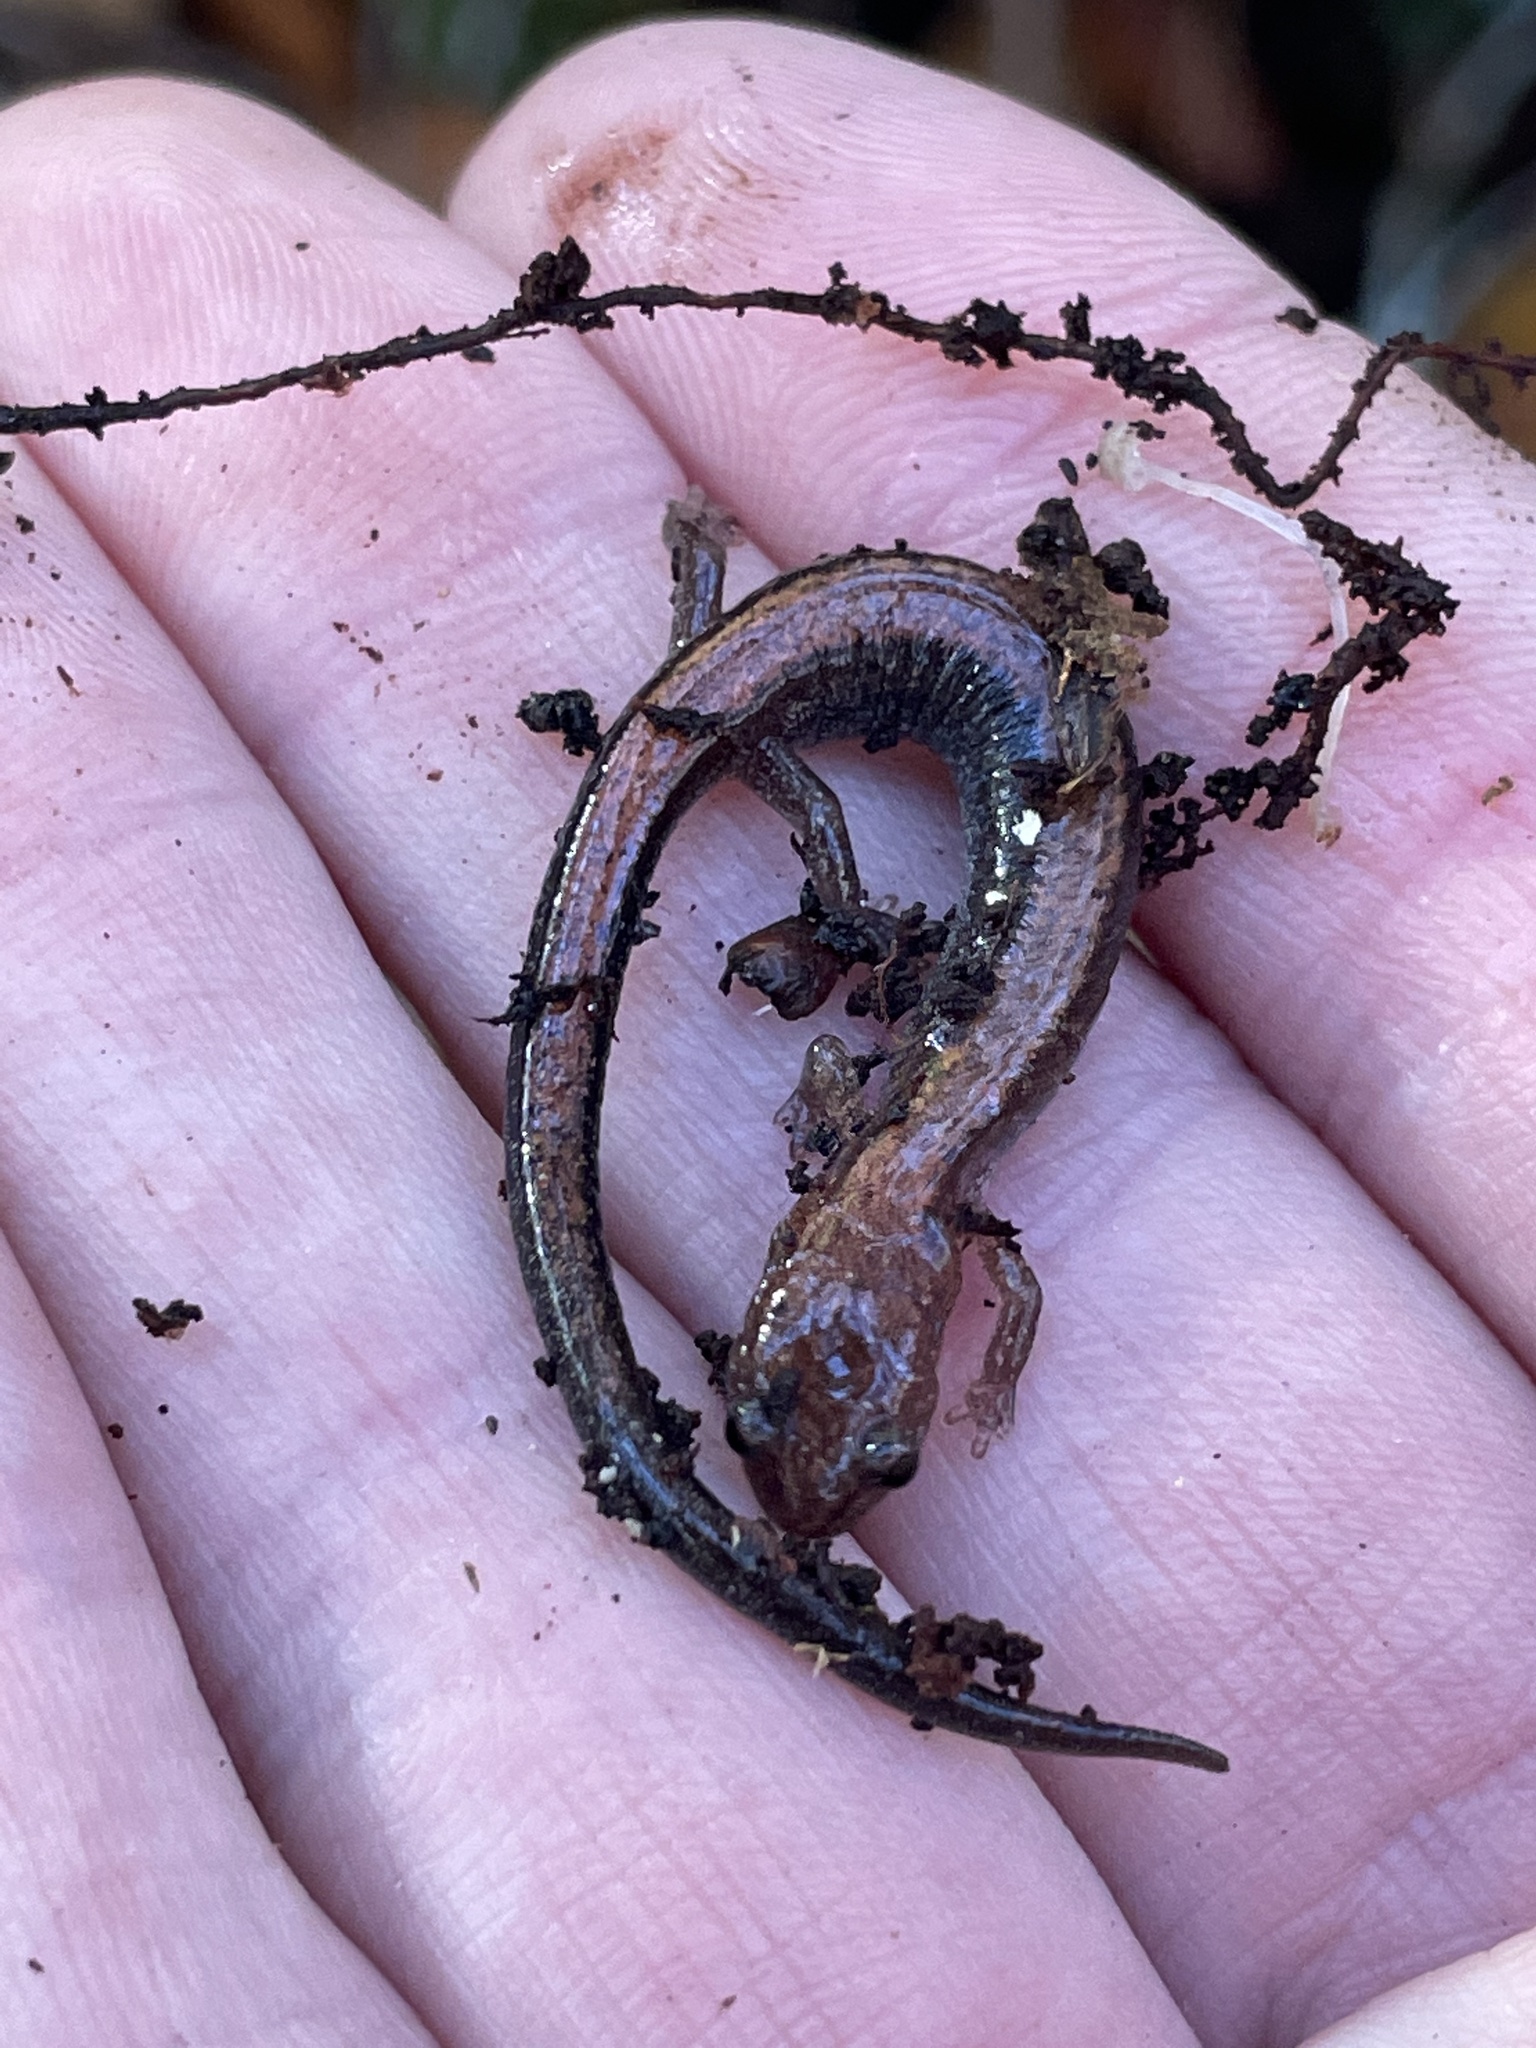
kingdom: Animalia
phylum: Chordata
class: Amphibia
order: Caudata
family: Plethodontidae
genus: Plethodon
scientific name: Plethodon cinereus
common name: Redback salamander
